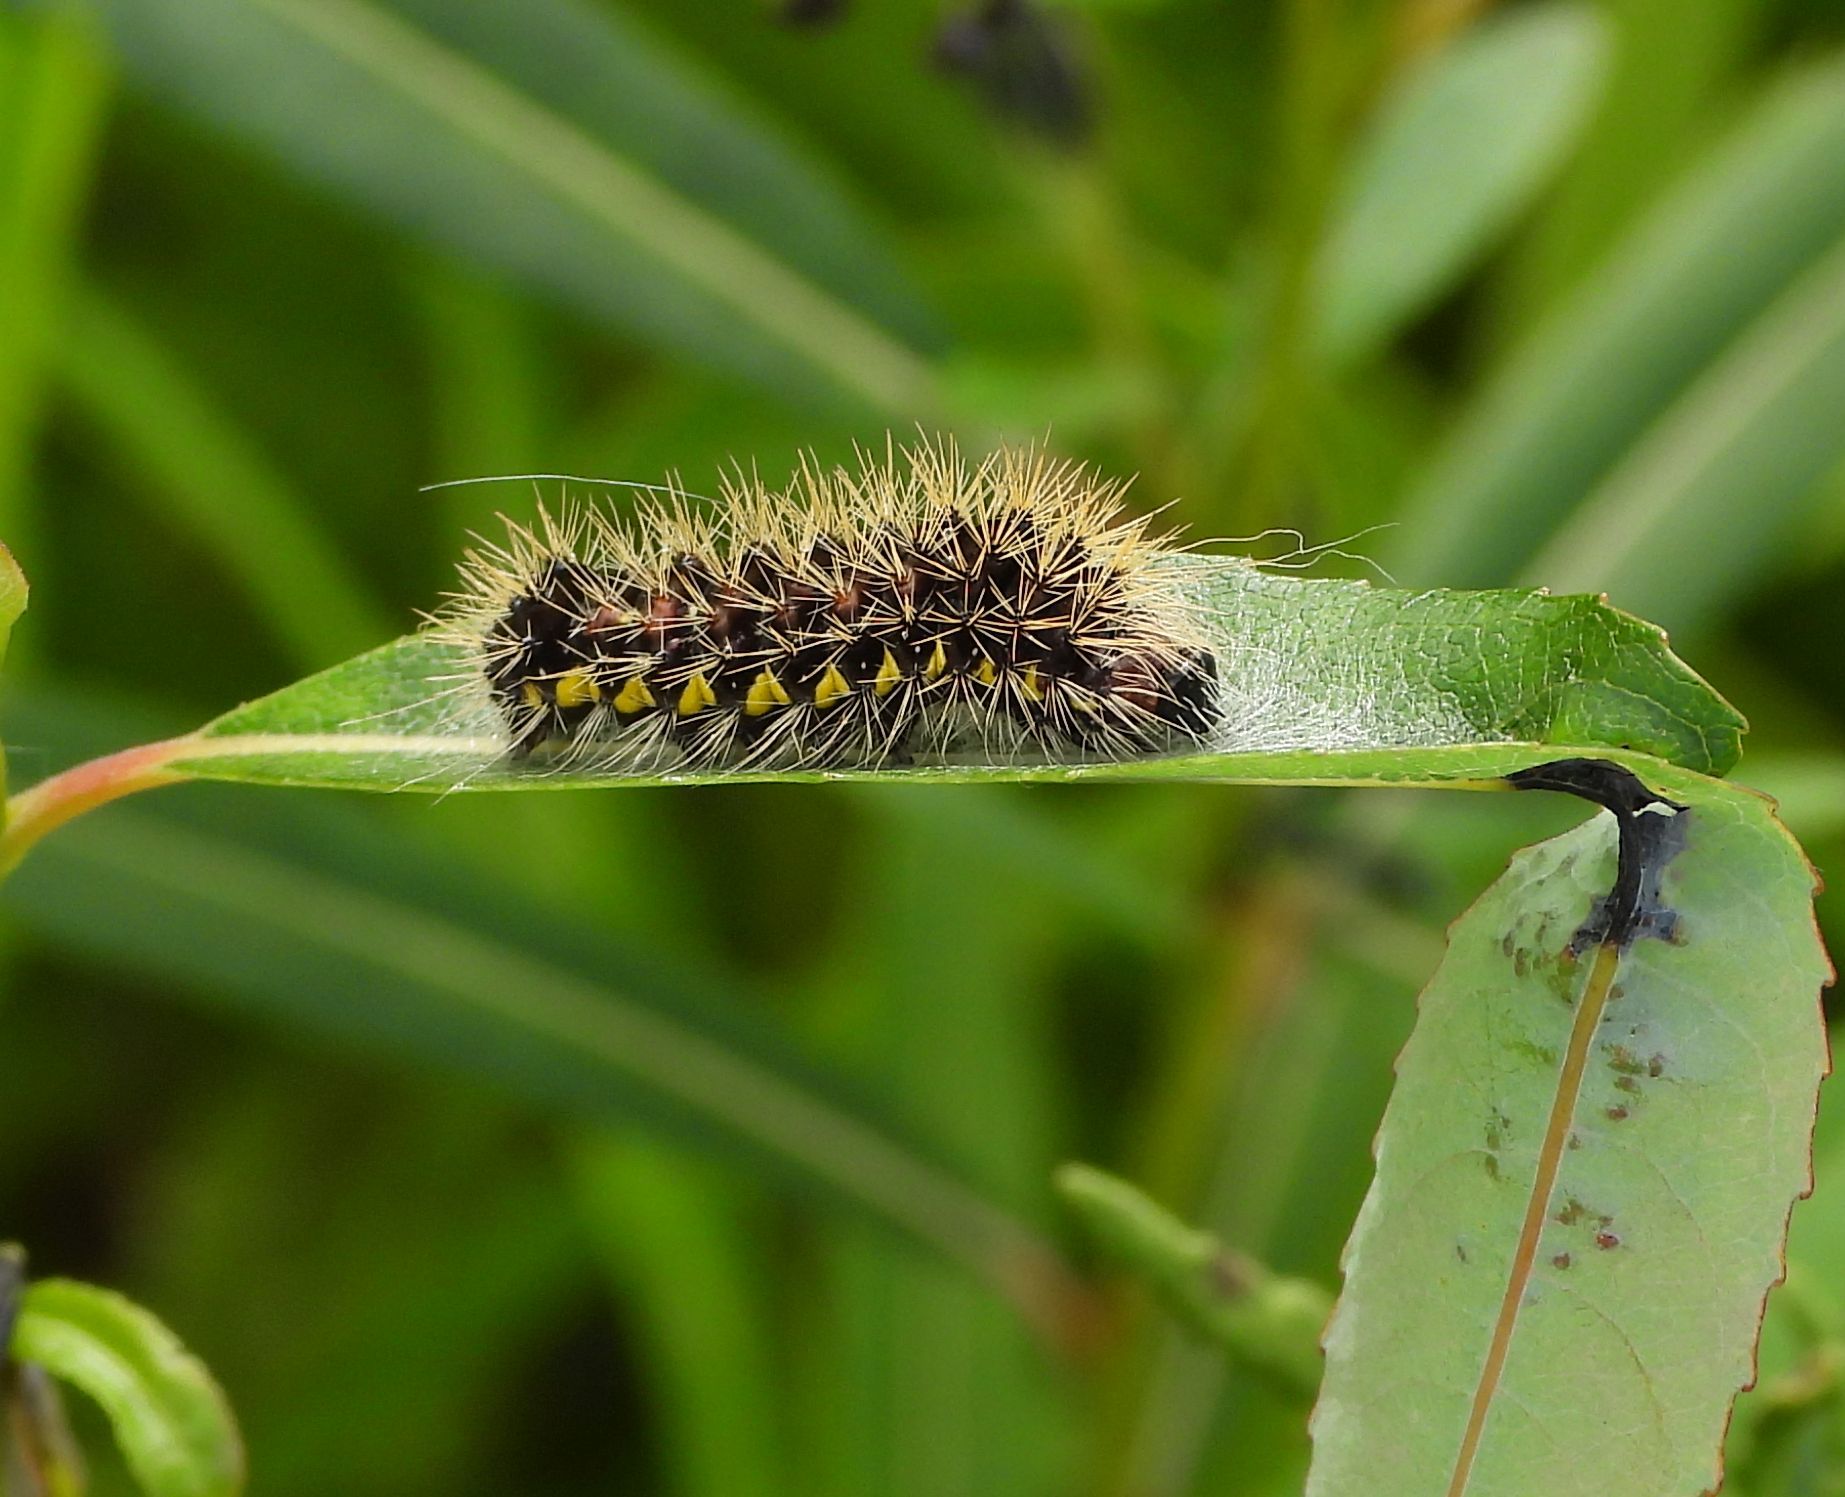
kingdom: Animalia
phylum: Arthropoda
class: Insecta
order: Lepidoptera
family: Noctuidae
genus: Acronicta
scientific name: Acronicta oblinita
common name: Smeared dagger
